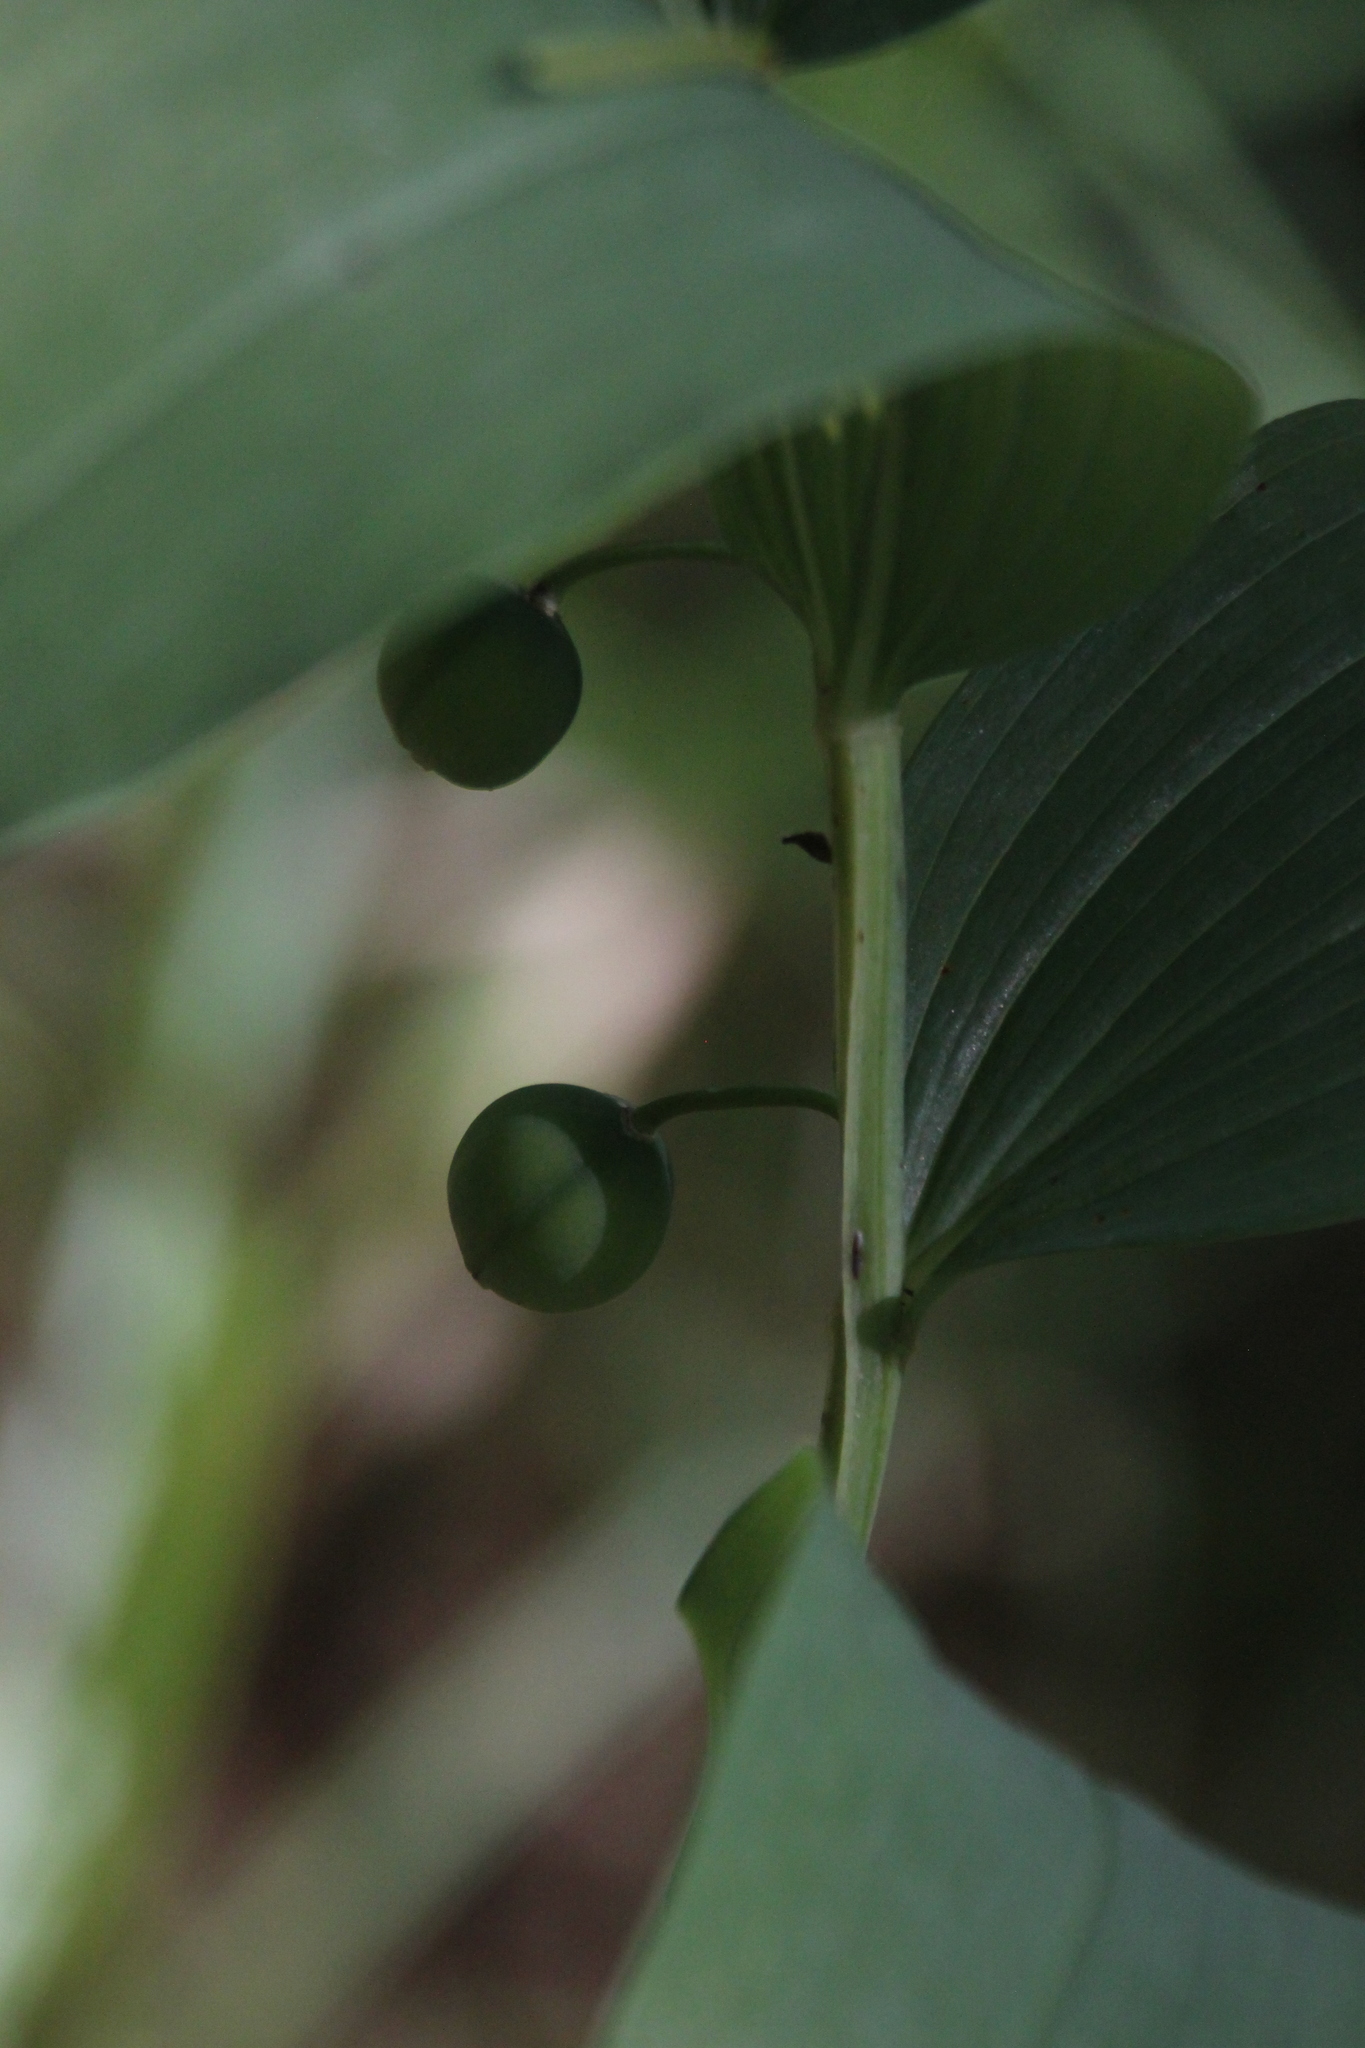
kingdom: Plantae
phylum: Tracheophyta
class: Liliopsida
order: Asparagales
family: Asparagaceae
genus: Polygonatum
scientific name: Polygonatum odoratum
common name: Angular solomon's-seal
